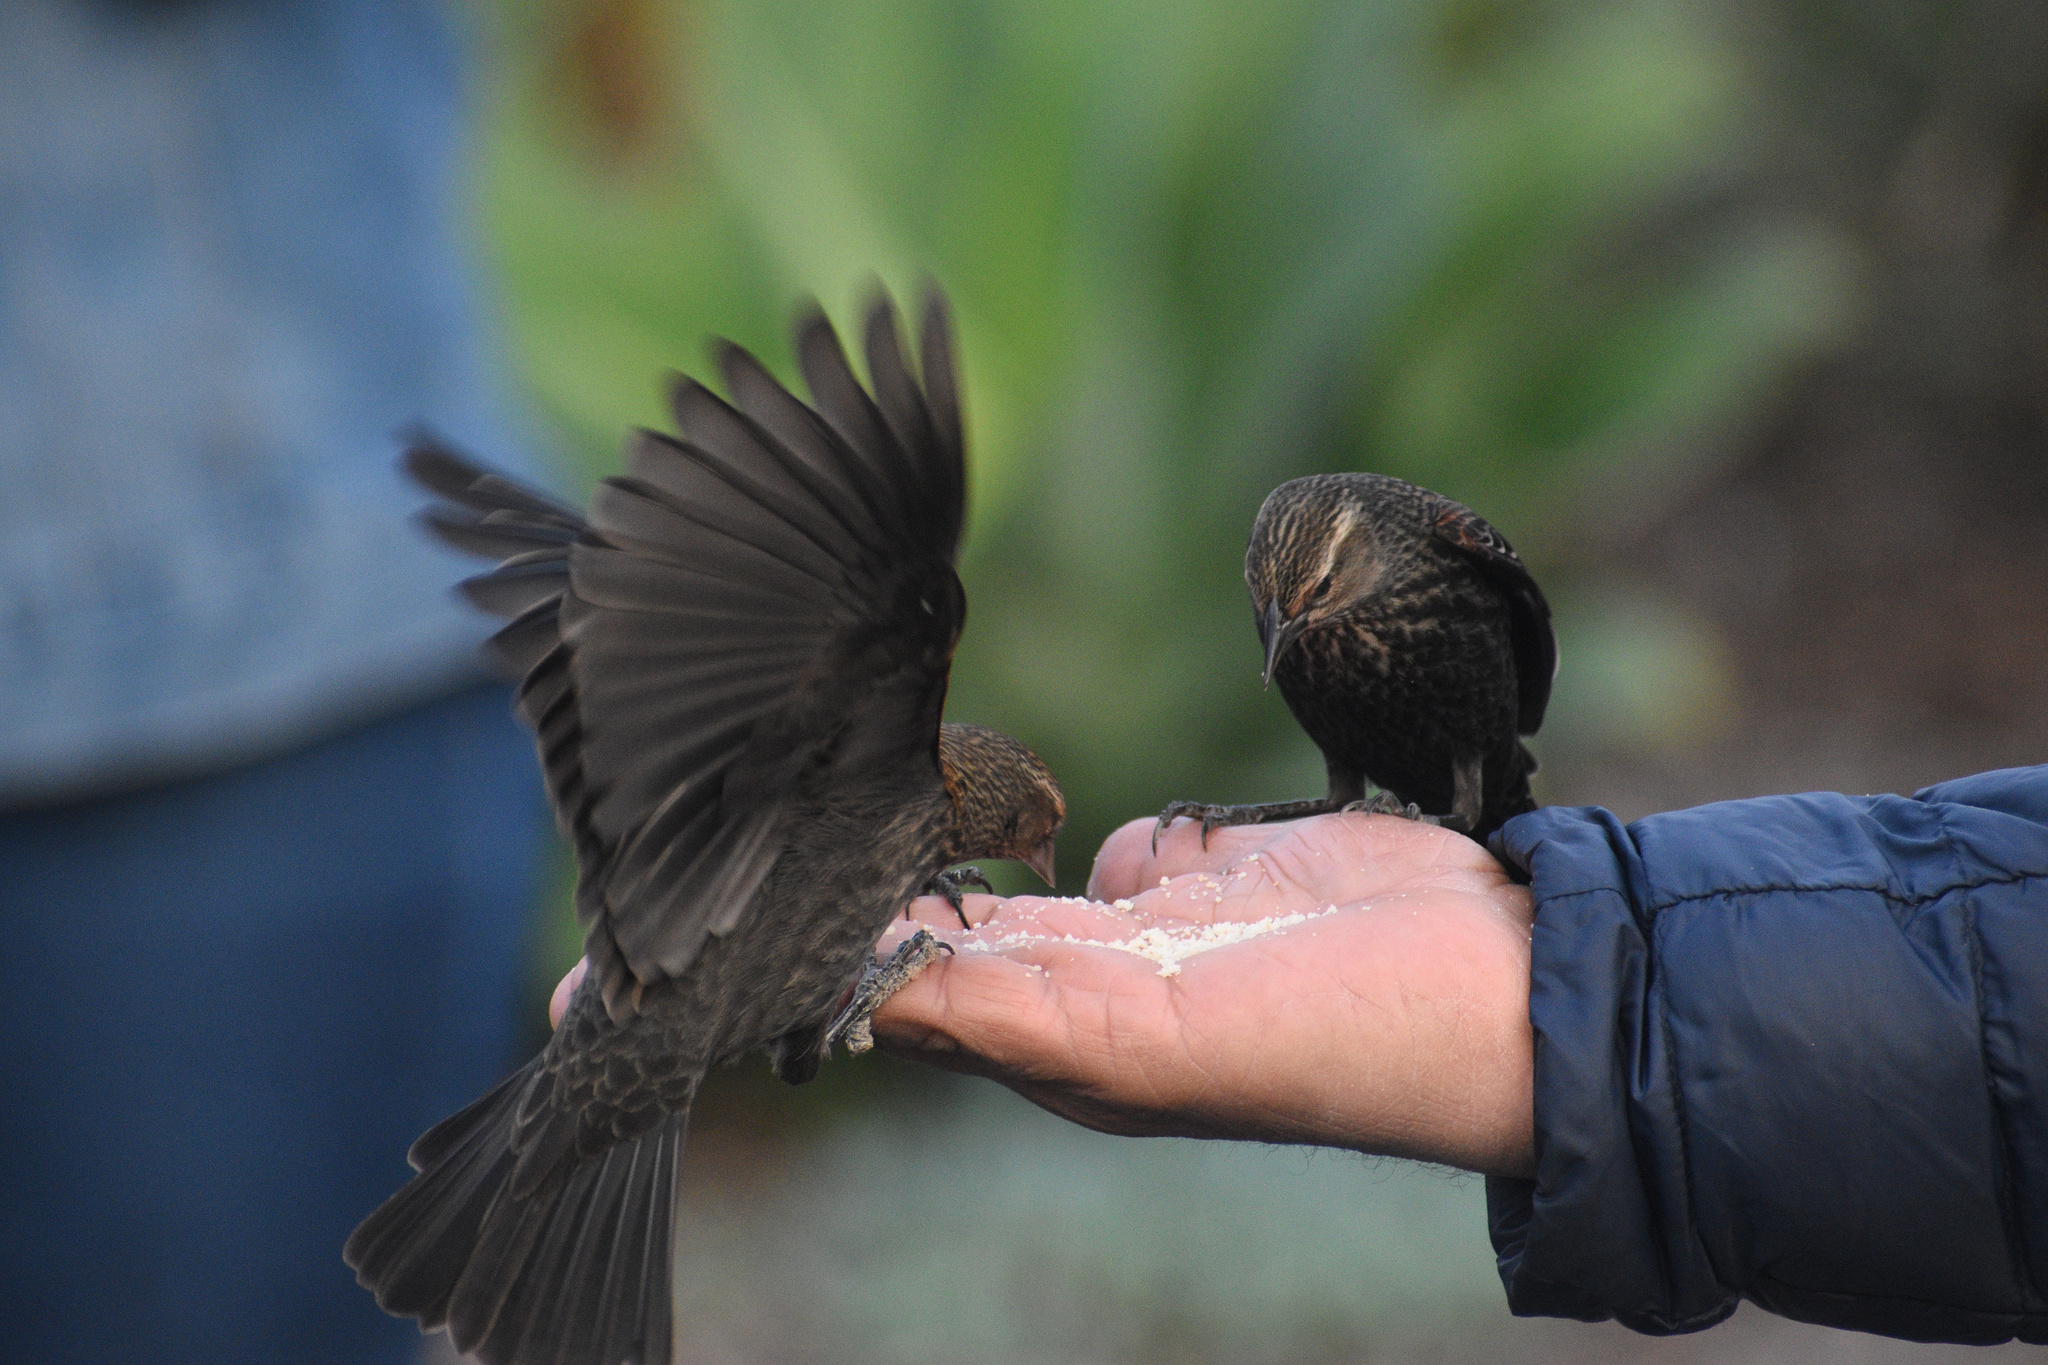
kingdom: Animalia
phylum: Chordata
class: Aves
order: Passeriformes
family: Icteridae
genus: Agelaius
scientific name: Agelaius phoeniceus
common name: Red-winged blackbird
